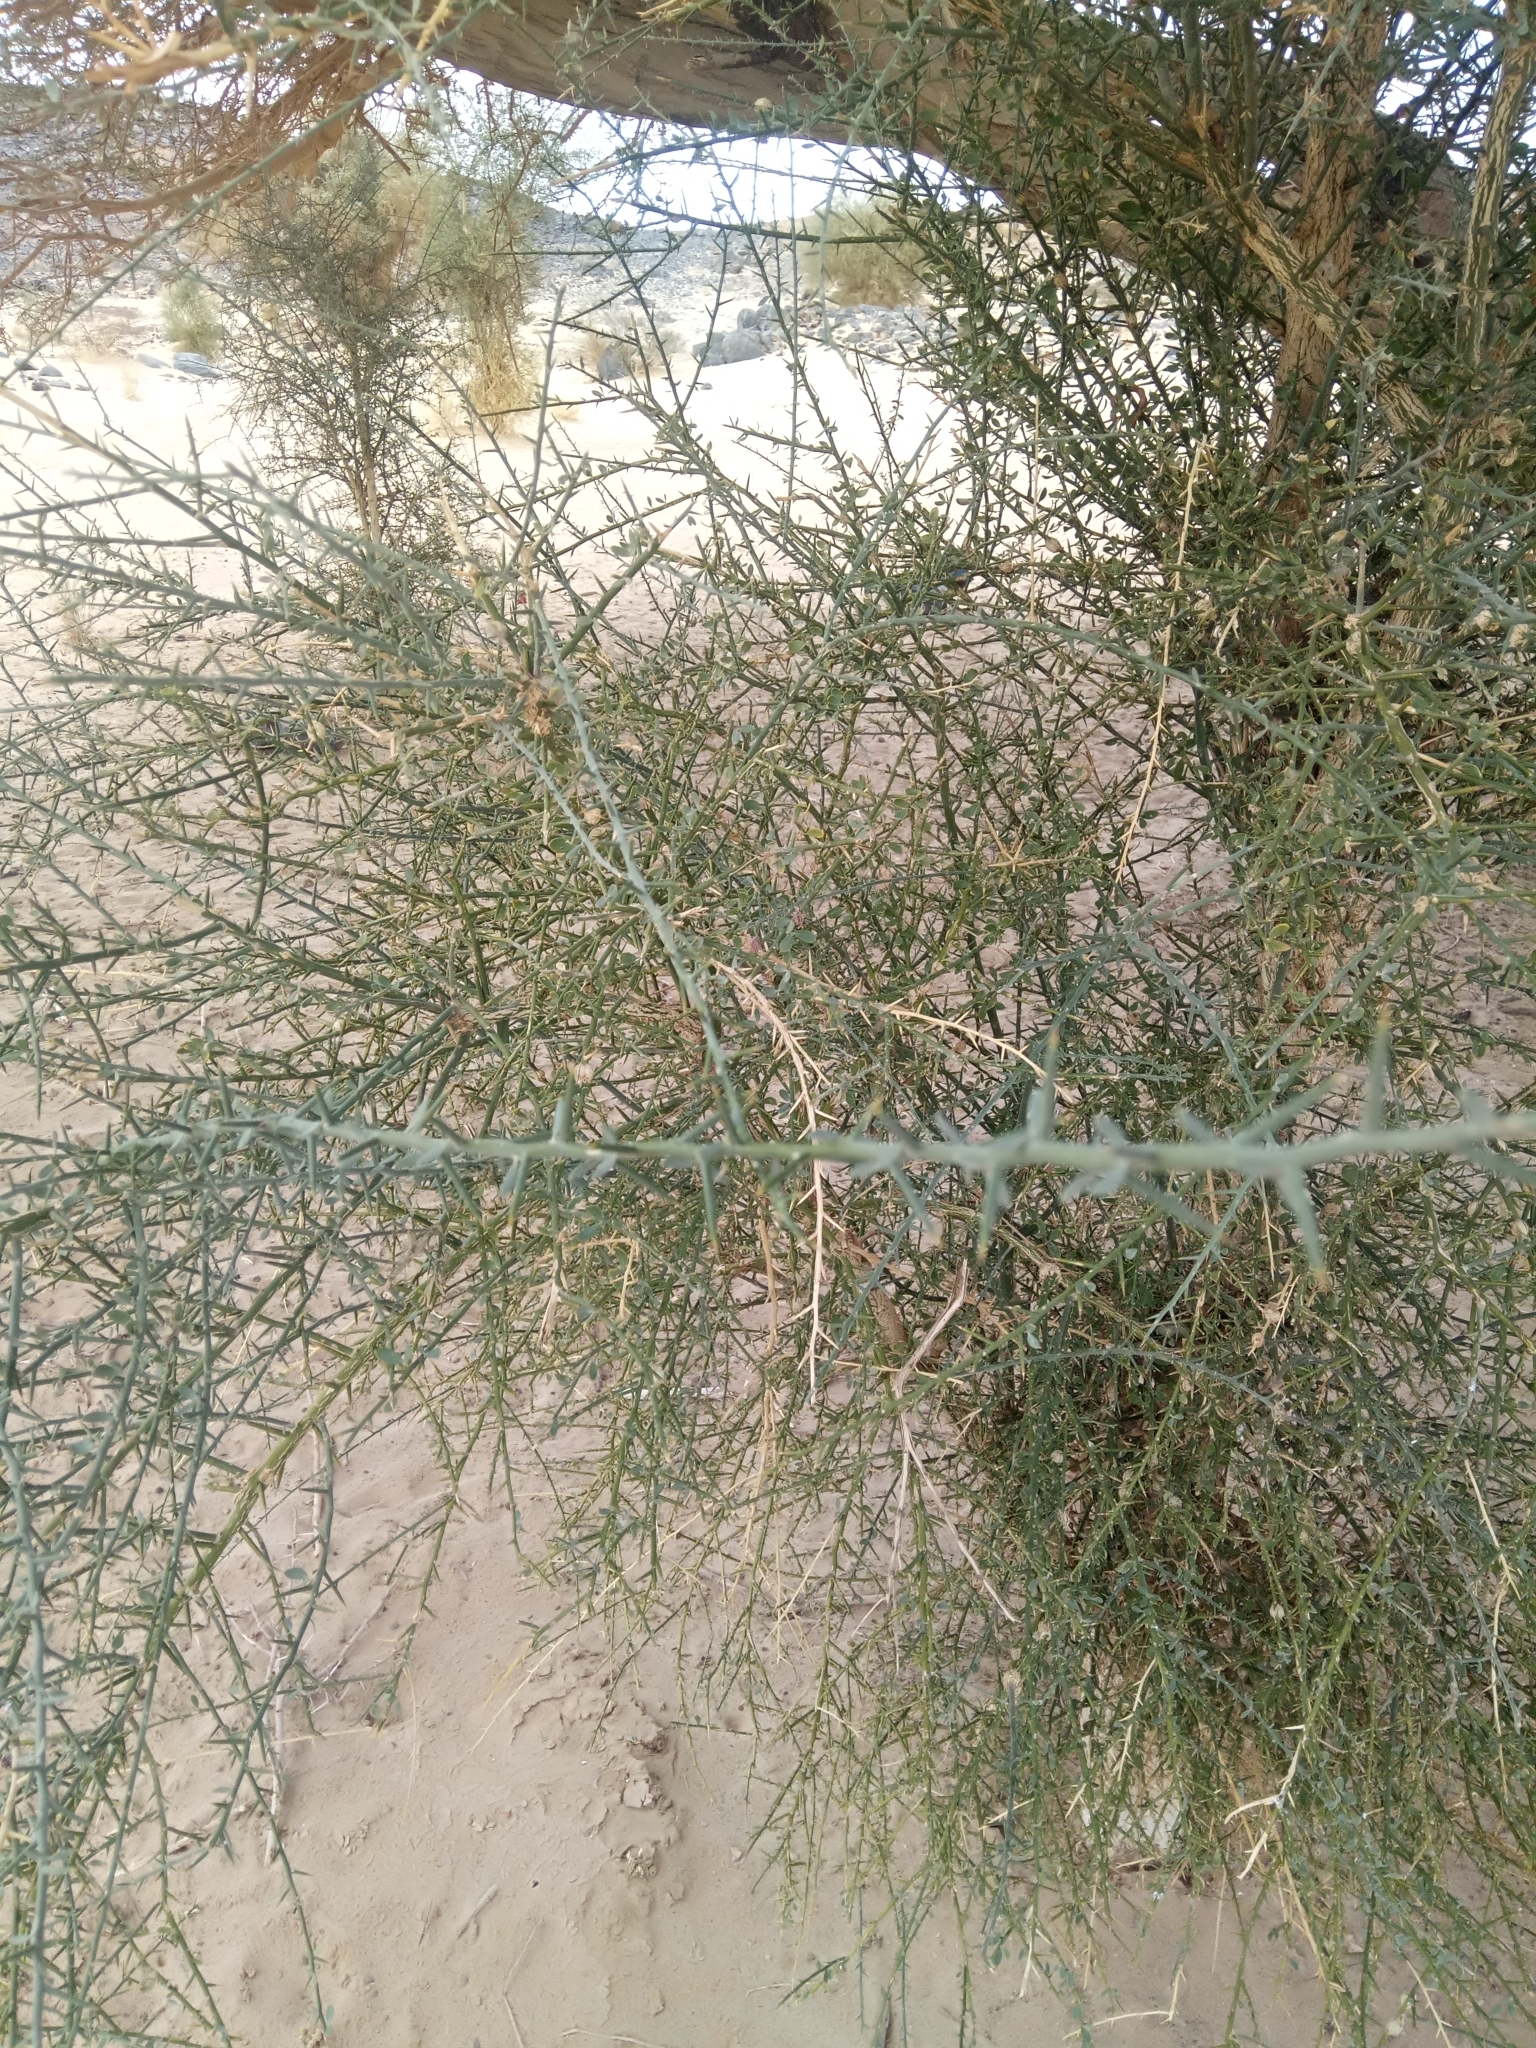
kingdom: Plantae
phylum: Tracheophyta
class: Magnoliopsida
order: Zygophyllales
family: Zygophyllaceae
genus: Balanites
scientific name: Balanites aegyptiaca
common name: Balanites
